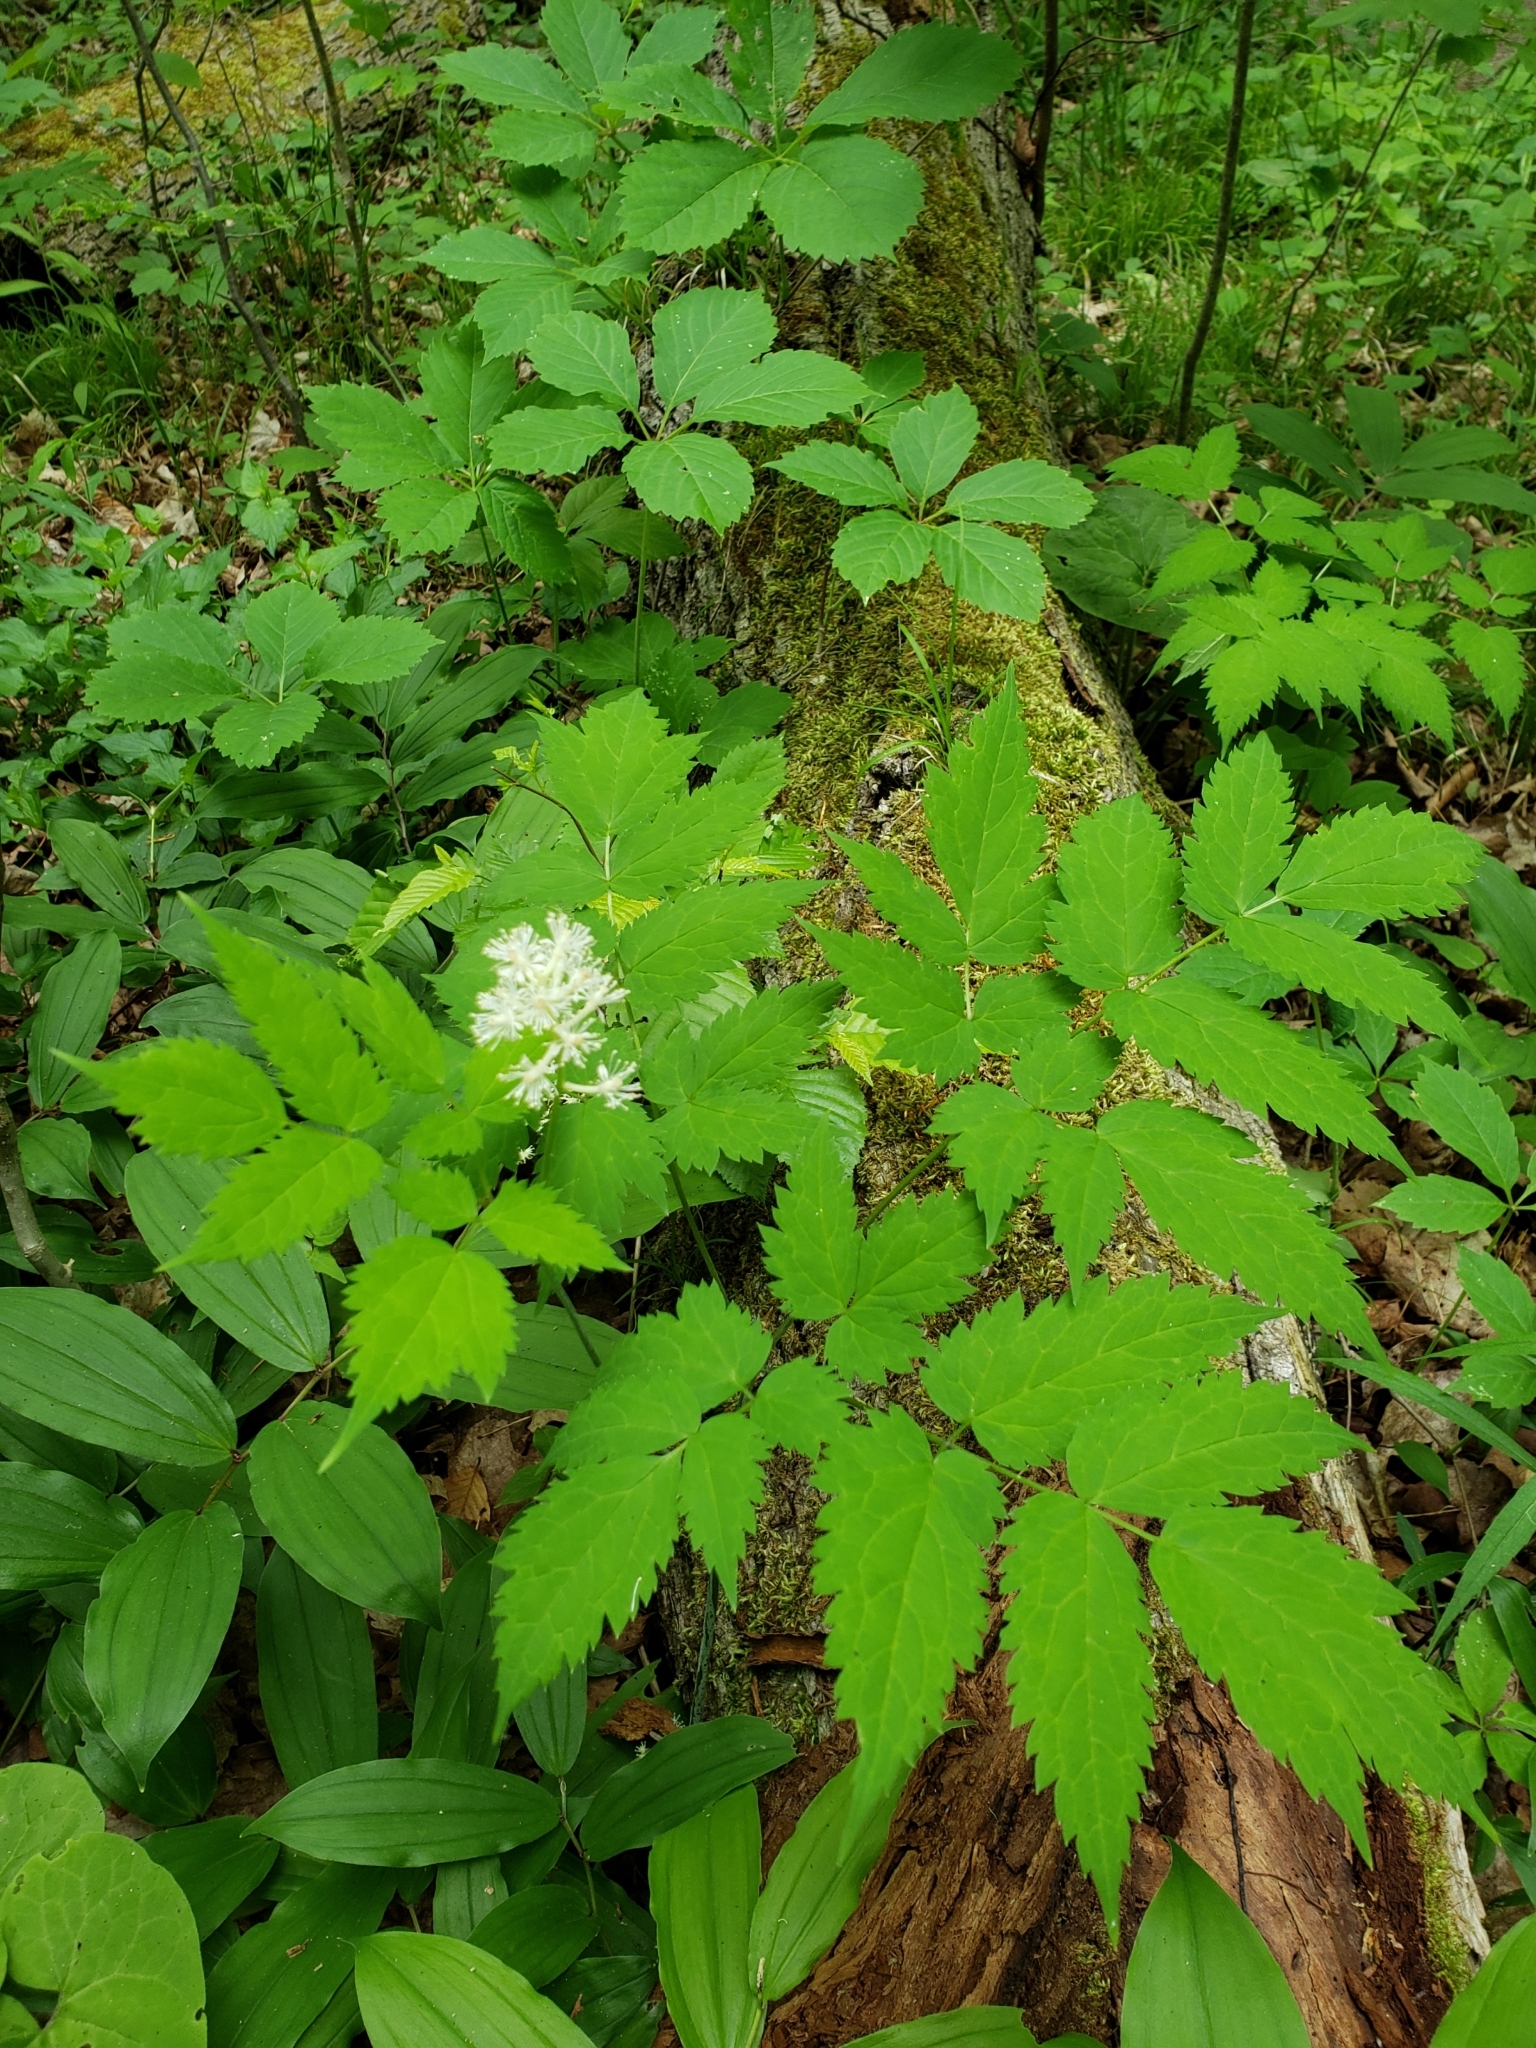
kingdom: Plantae
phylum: Tracheophyta
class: Magnoliopsida
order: Ranunculales
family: Ranunculaceae
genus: Actaea
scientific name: Actaea pachypoda
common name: Doll's-eyes
